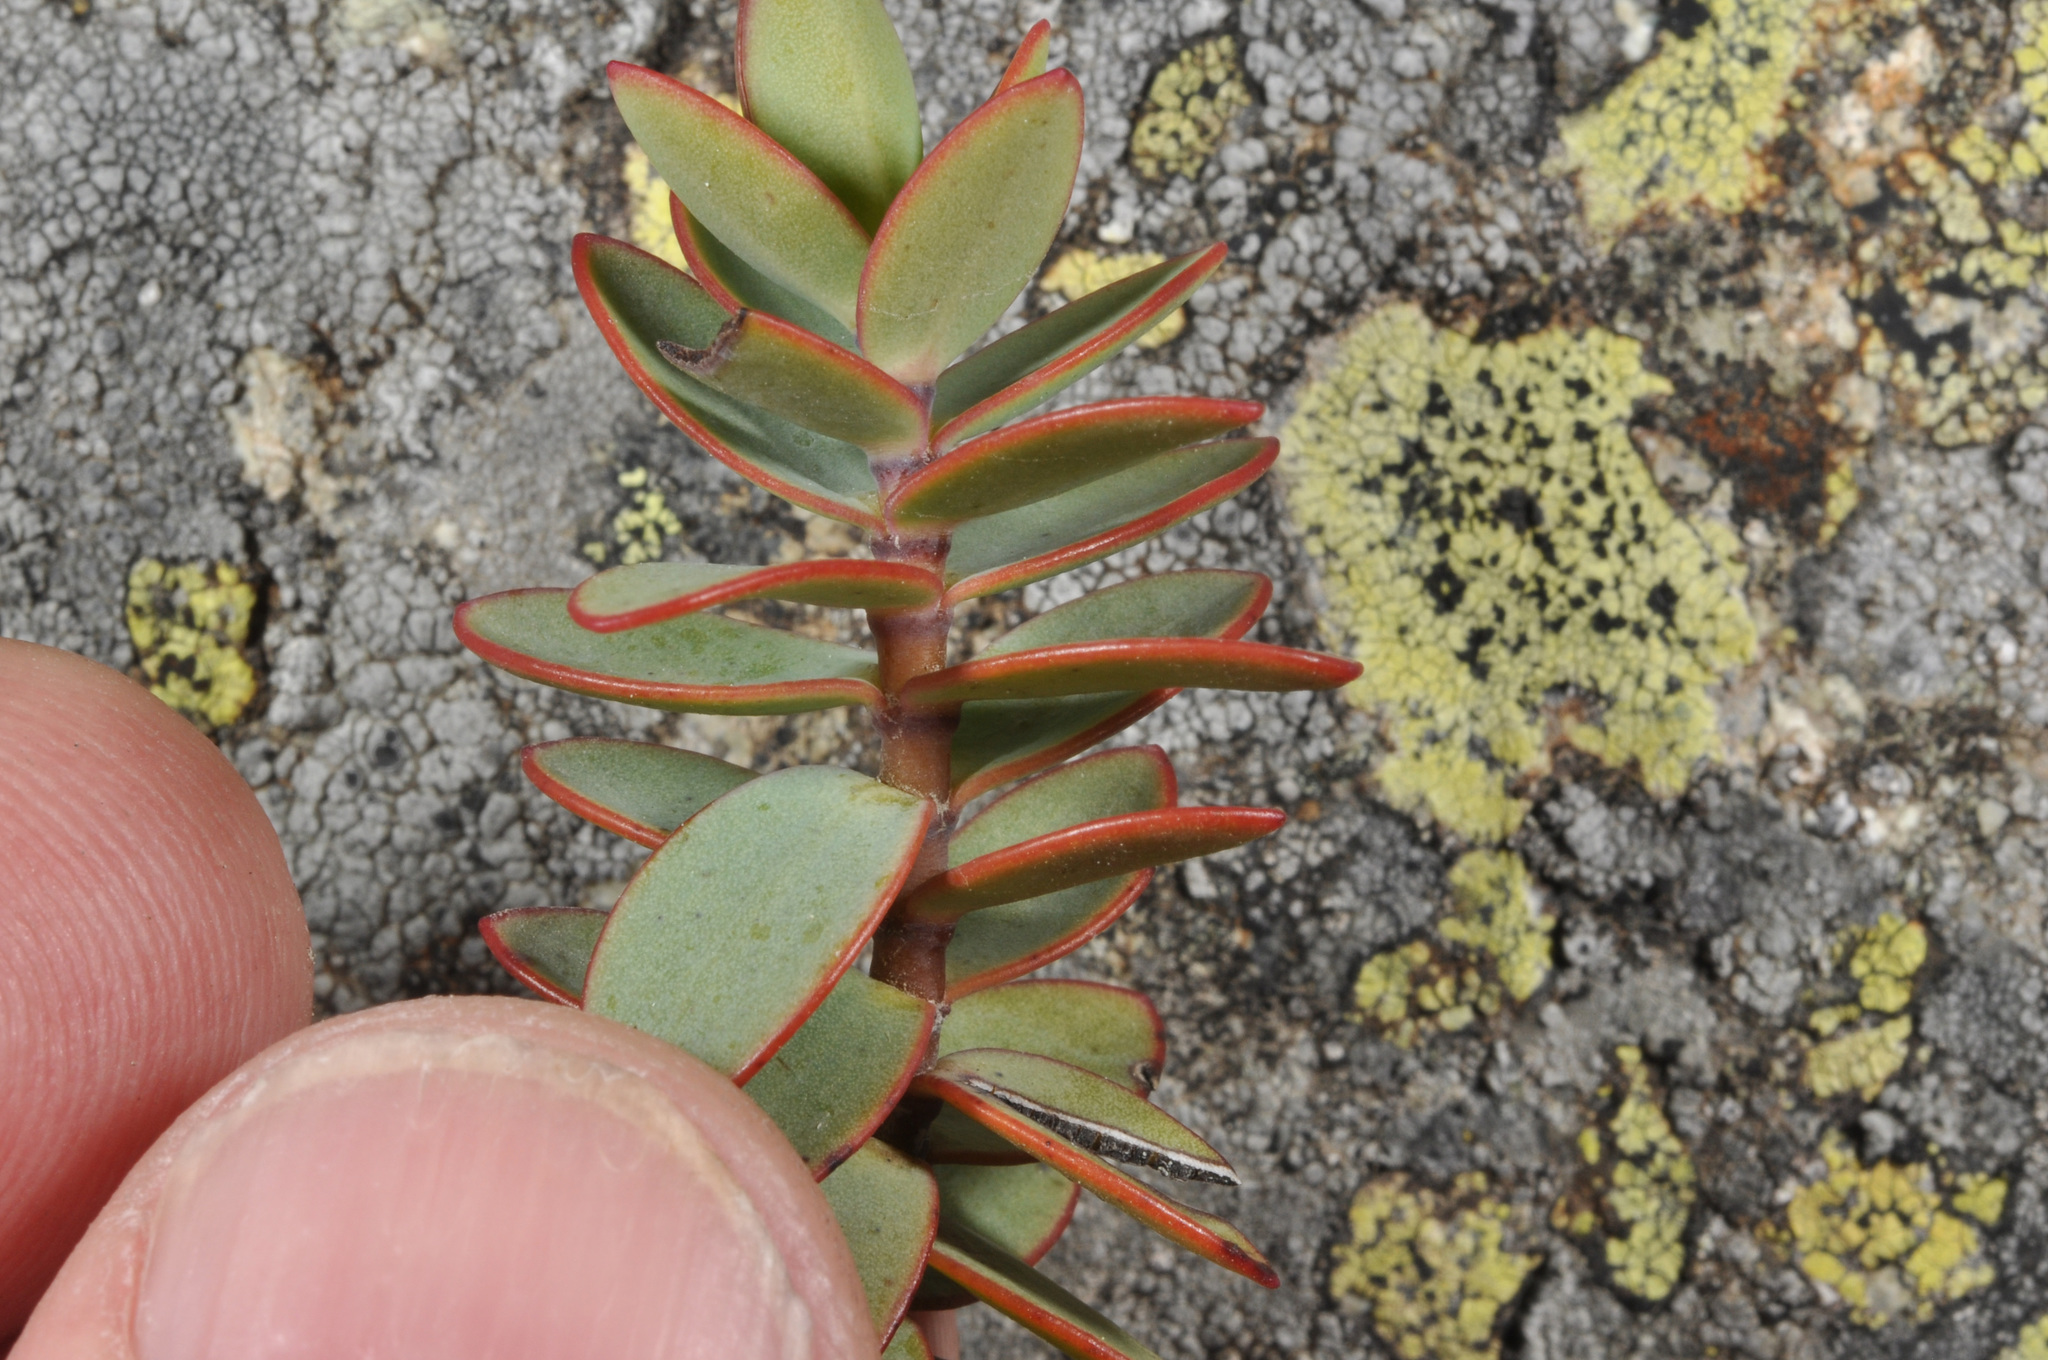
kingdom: Plantae
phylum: Tracheophyta
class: Magnoliopsida
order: Lamiales
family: Plantaginaceae
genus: Veronica
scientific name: Veronica amplexicaulis
